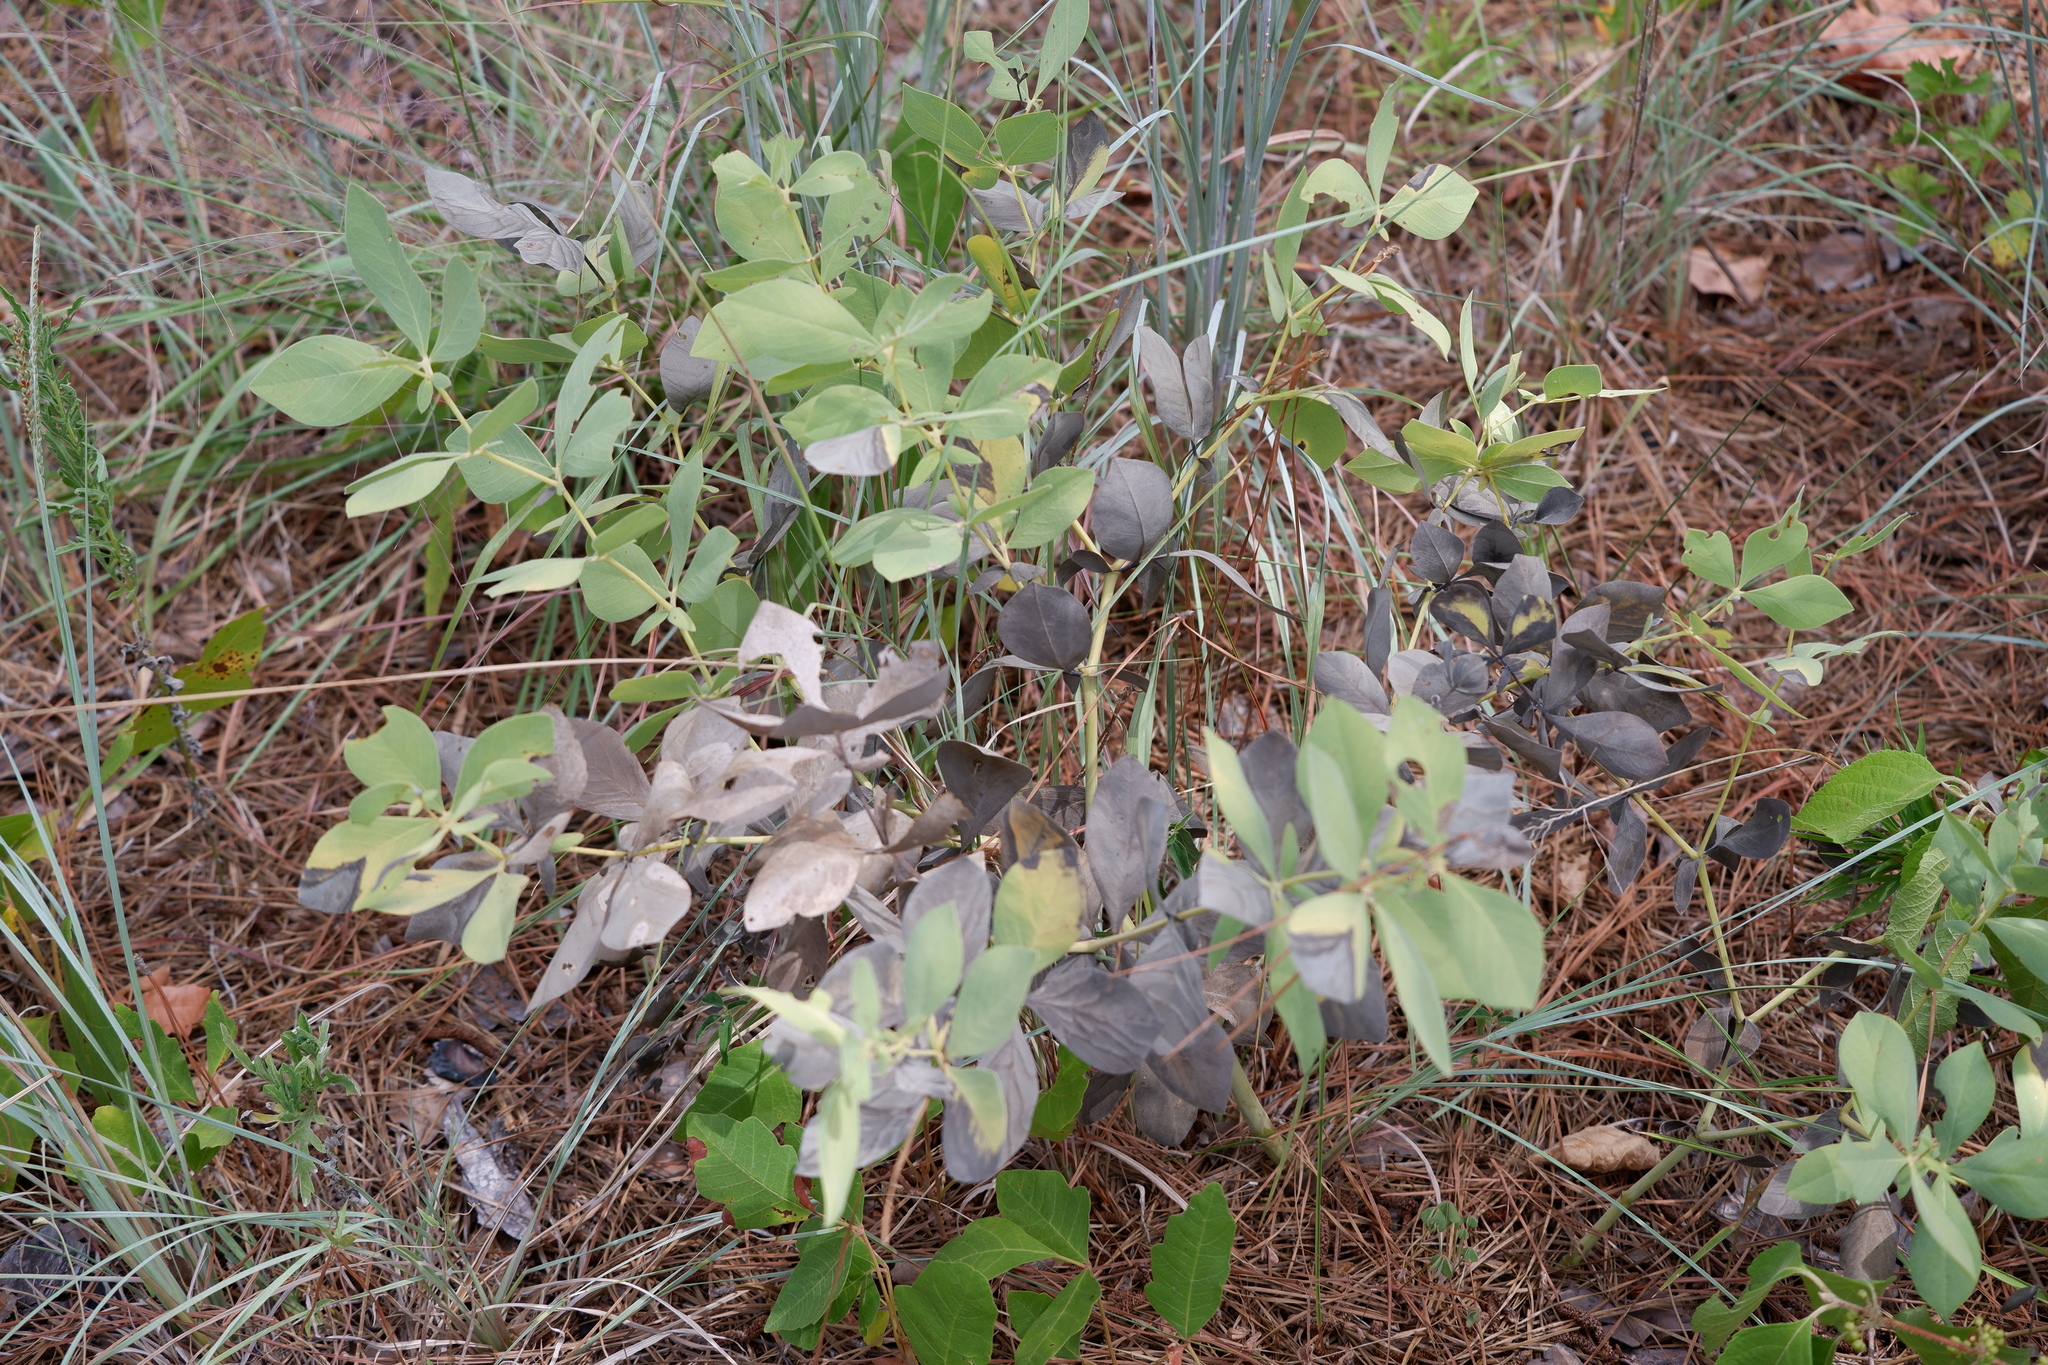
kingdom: Plantae
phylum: Tracheophyta
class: Magnoliopsida
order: Fabales
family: Fabaceae
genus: Baptisia
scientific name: Baptisia bracteata
